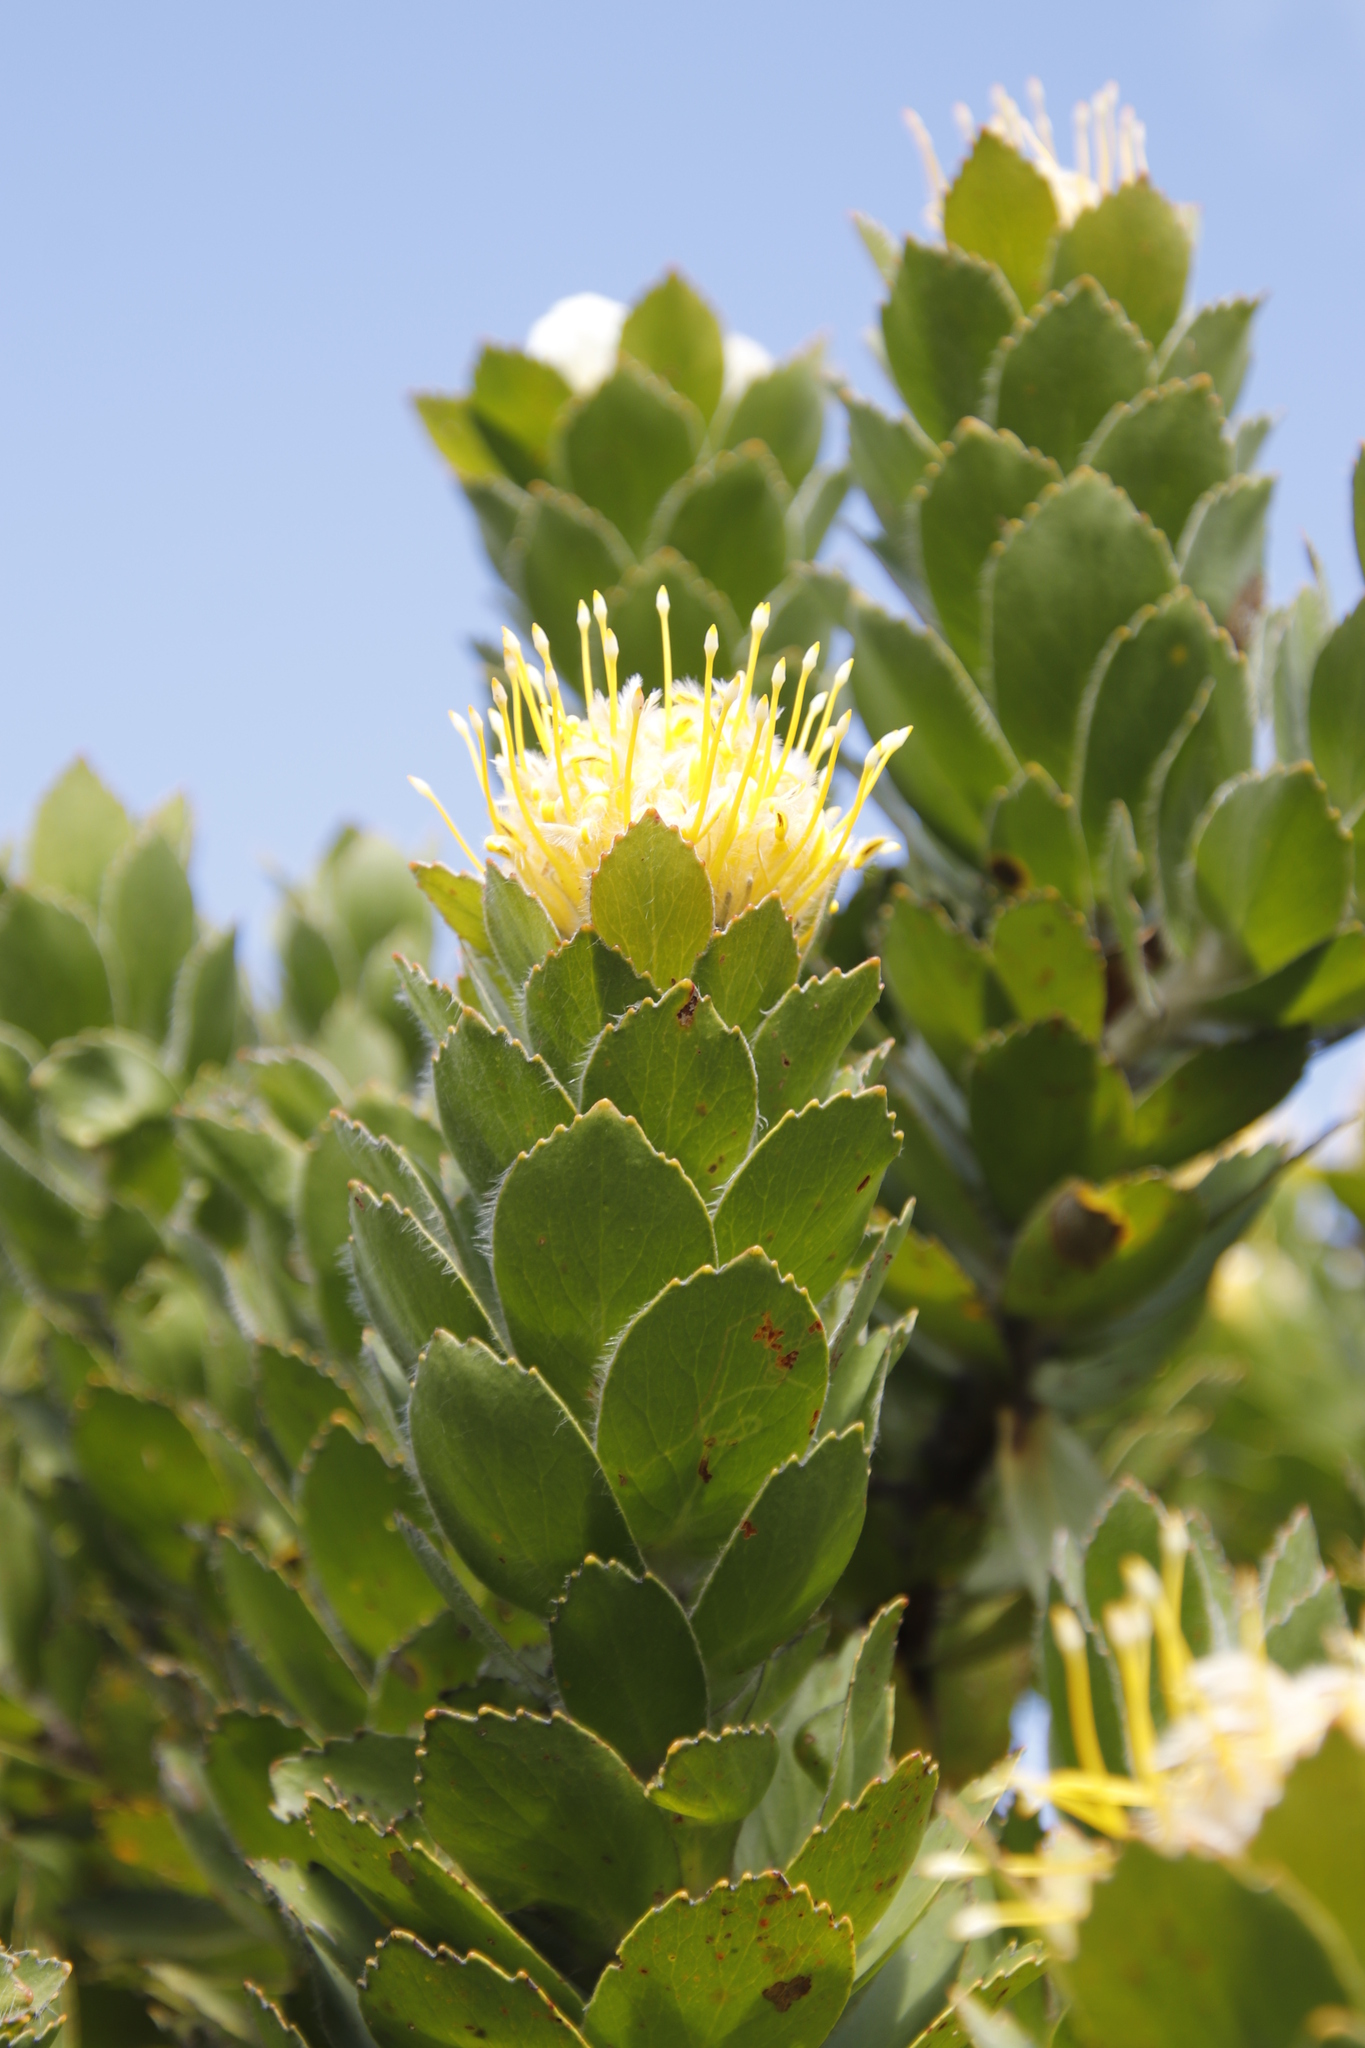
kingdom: Plantae
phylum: Tracheophyta
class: Magnoliopsida
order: Proteales
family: Proteaceae
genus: Leucospermum
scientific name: Leucospermum conocarpodendron
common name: Tree pincushion
